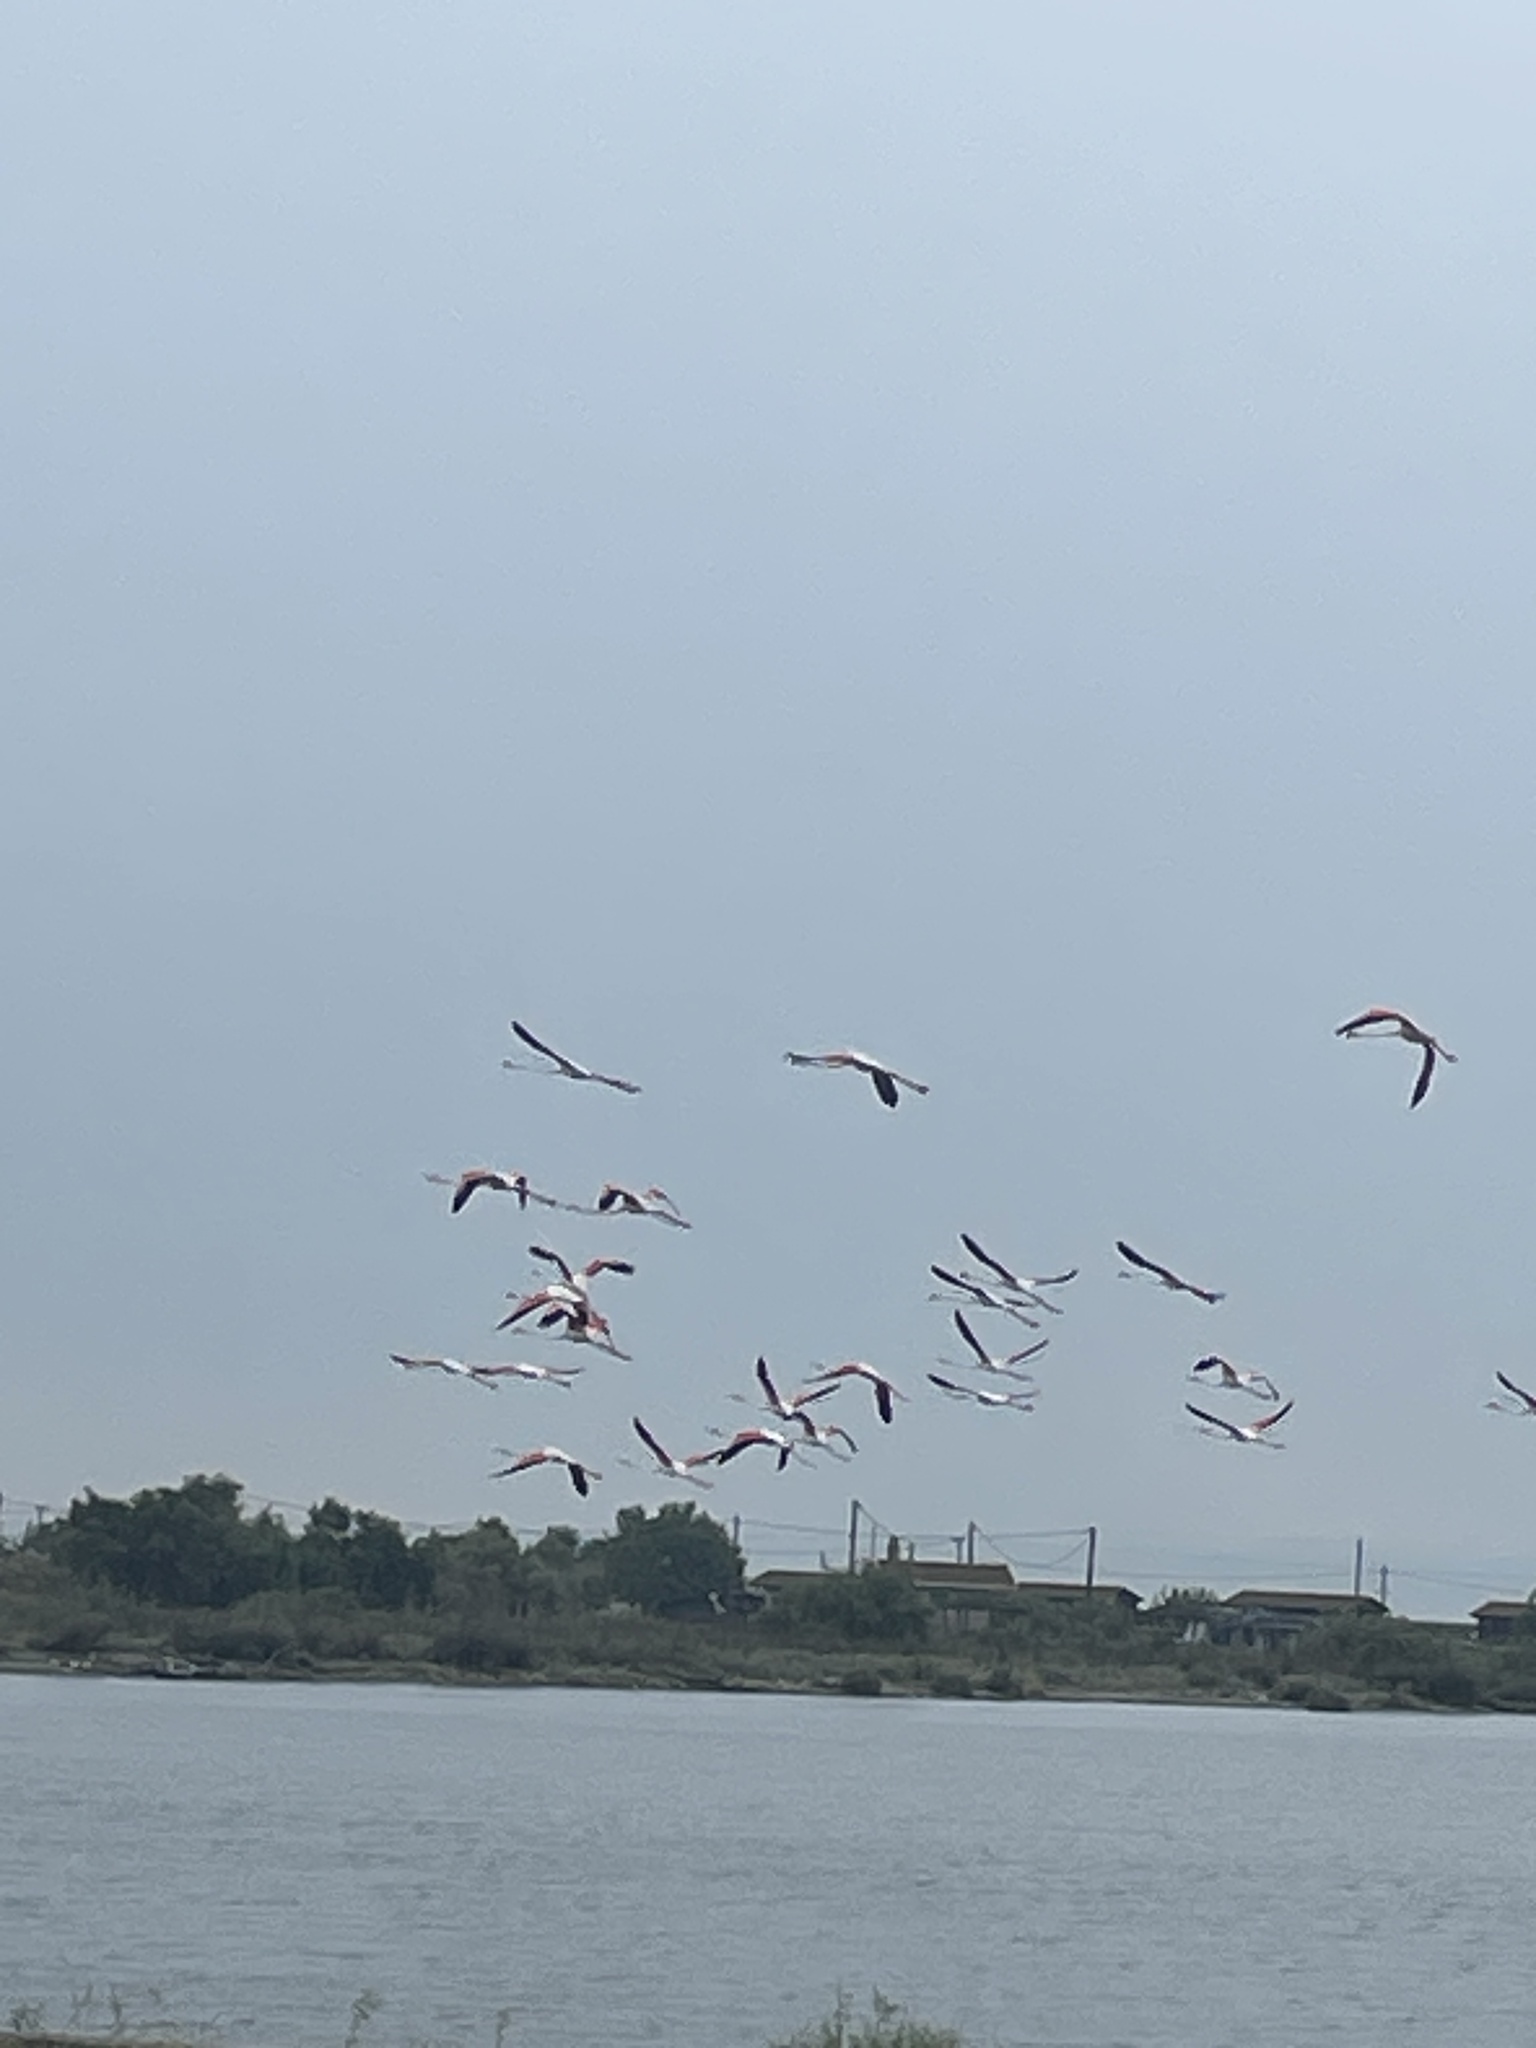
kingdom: Animalia
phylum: Chordata
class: Aves
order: Phoenicopteriformes
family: Phoenicopteridae
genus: Phoenicopterus
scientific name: Phoenicopterus roseus
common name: Greater flamingo
